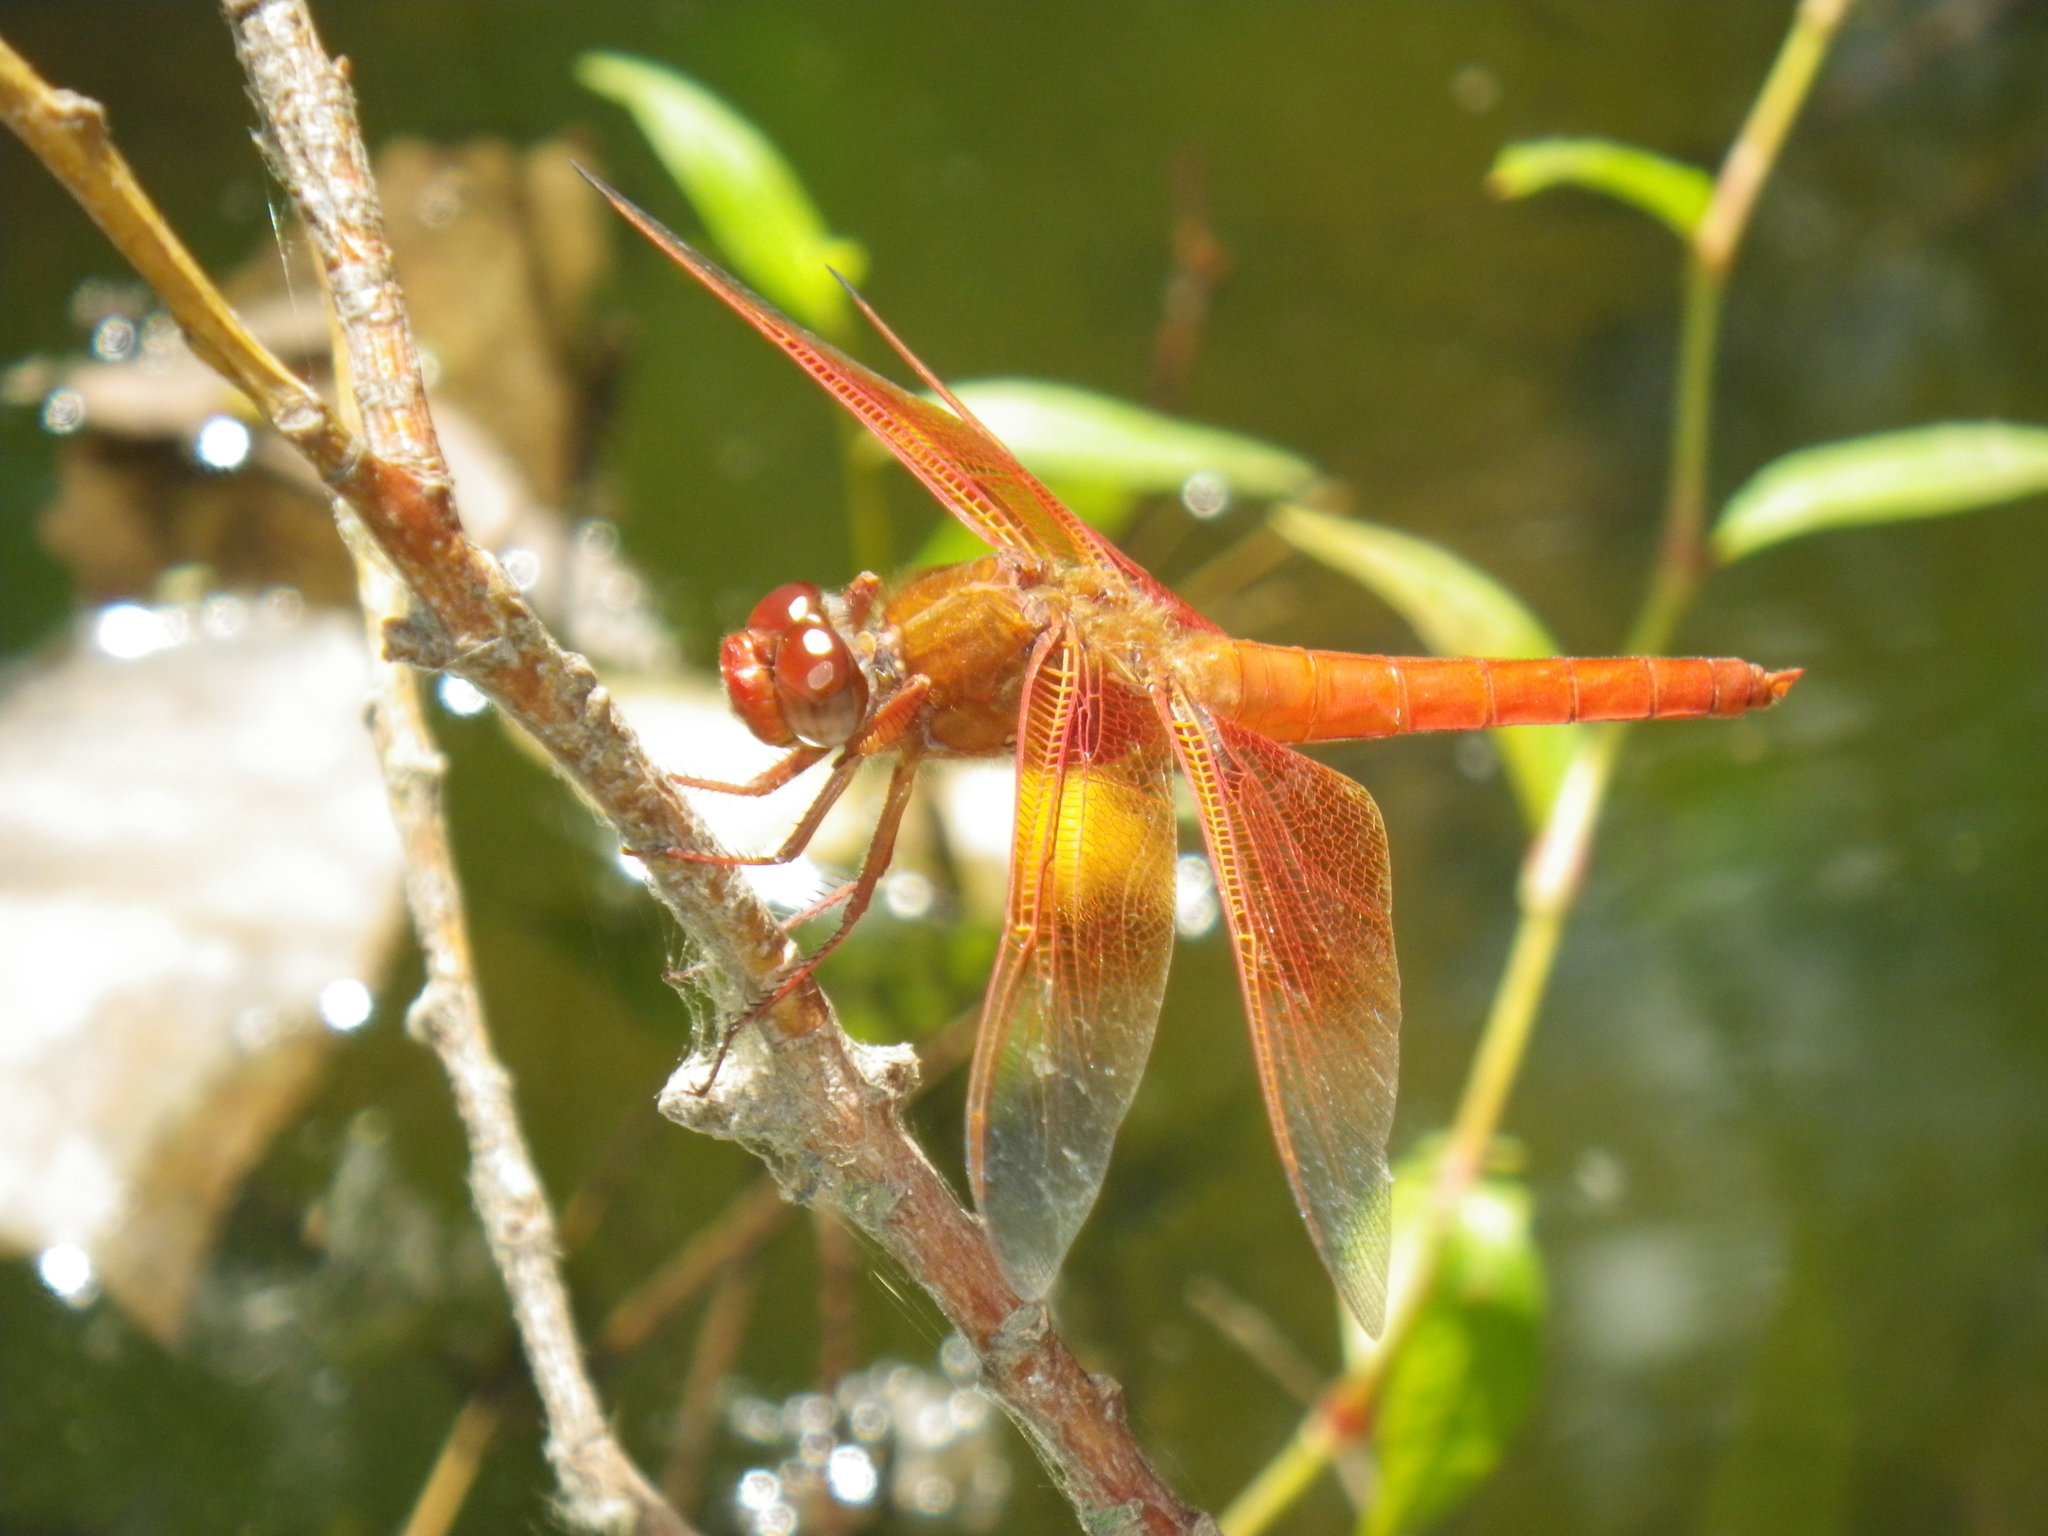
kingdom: Animalia
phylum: Arthropoda
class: Insecta
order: Odonata
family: Libellulidae
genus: Libellula
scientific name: Libellula saturata
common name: Flame skimmer
